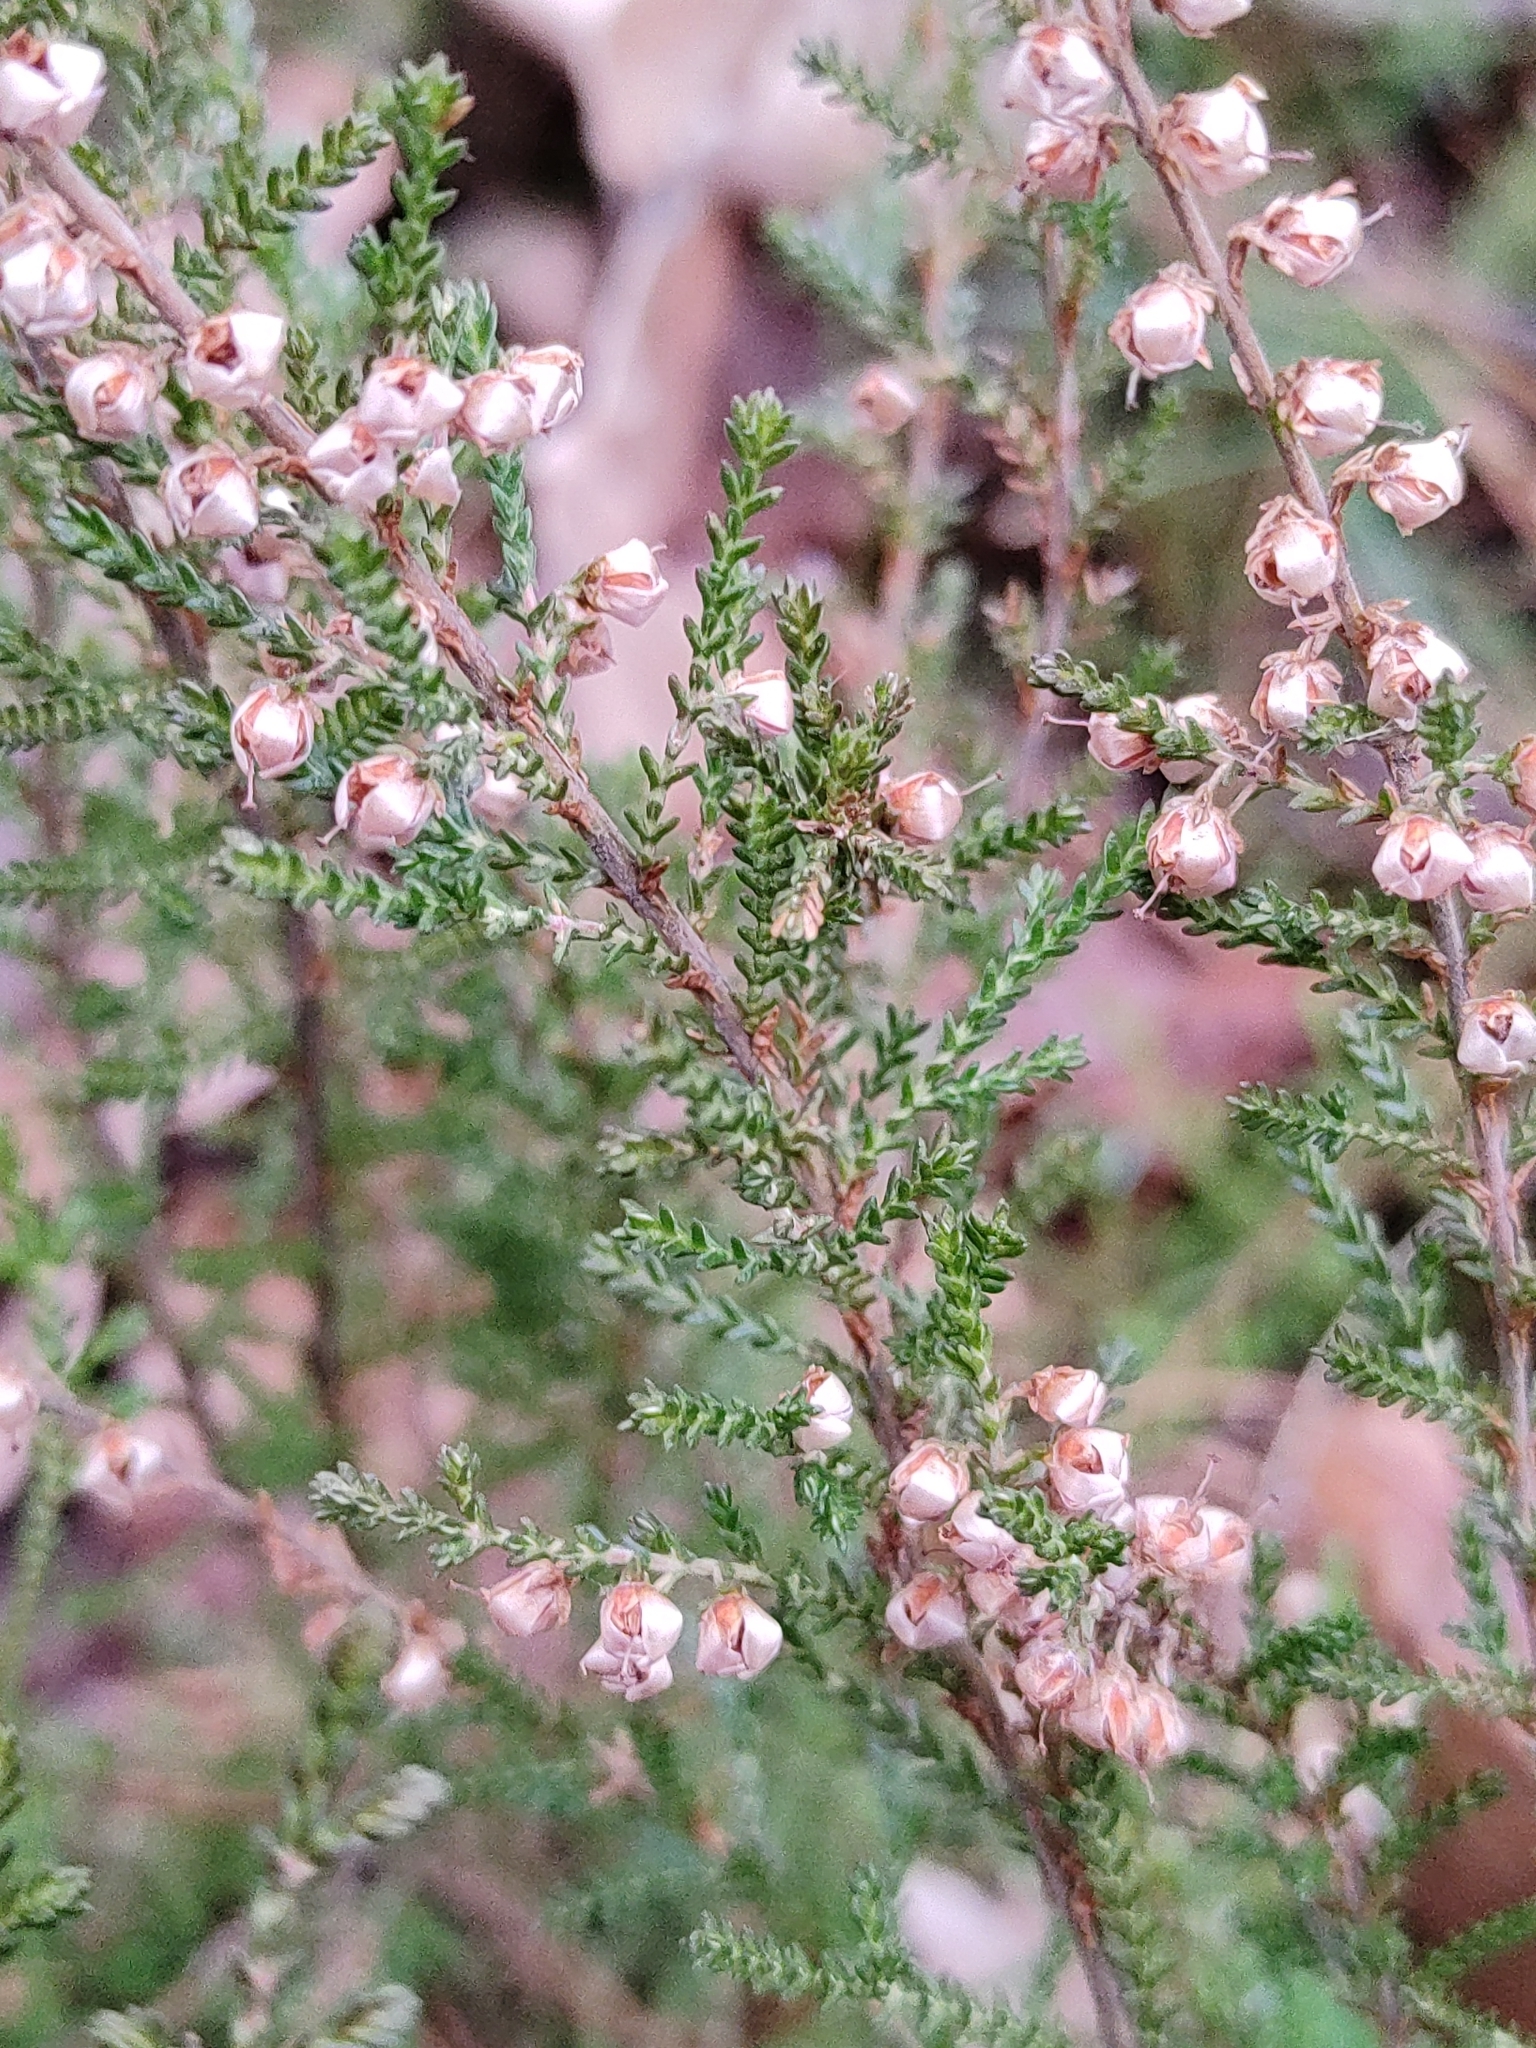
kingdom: Plantae
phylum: Tracheophyta
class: Magnoliopsida
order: Ericales
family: Ericaceae
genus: Calluna
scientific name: Calluna vulgaris
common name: Heather
